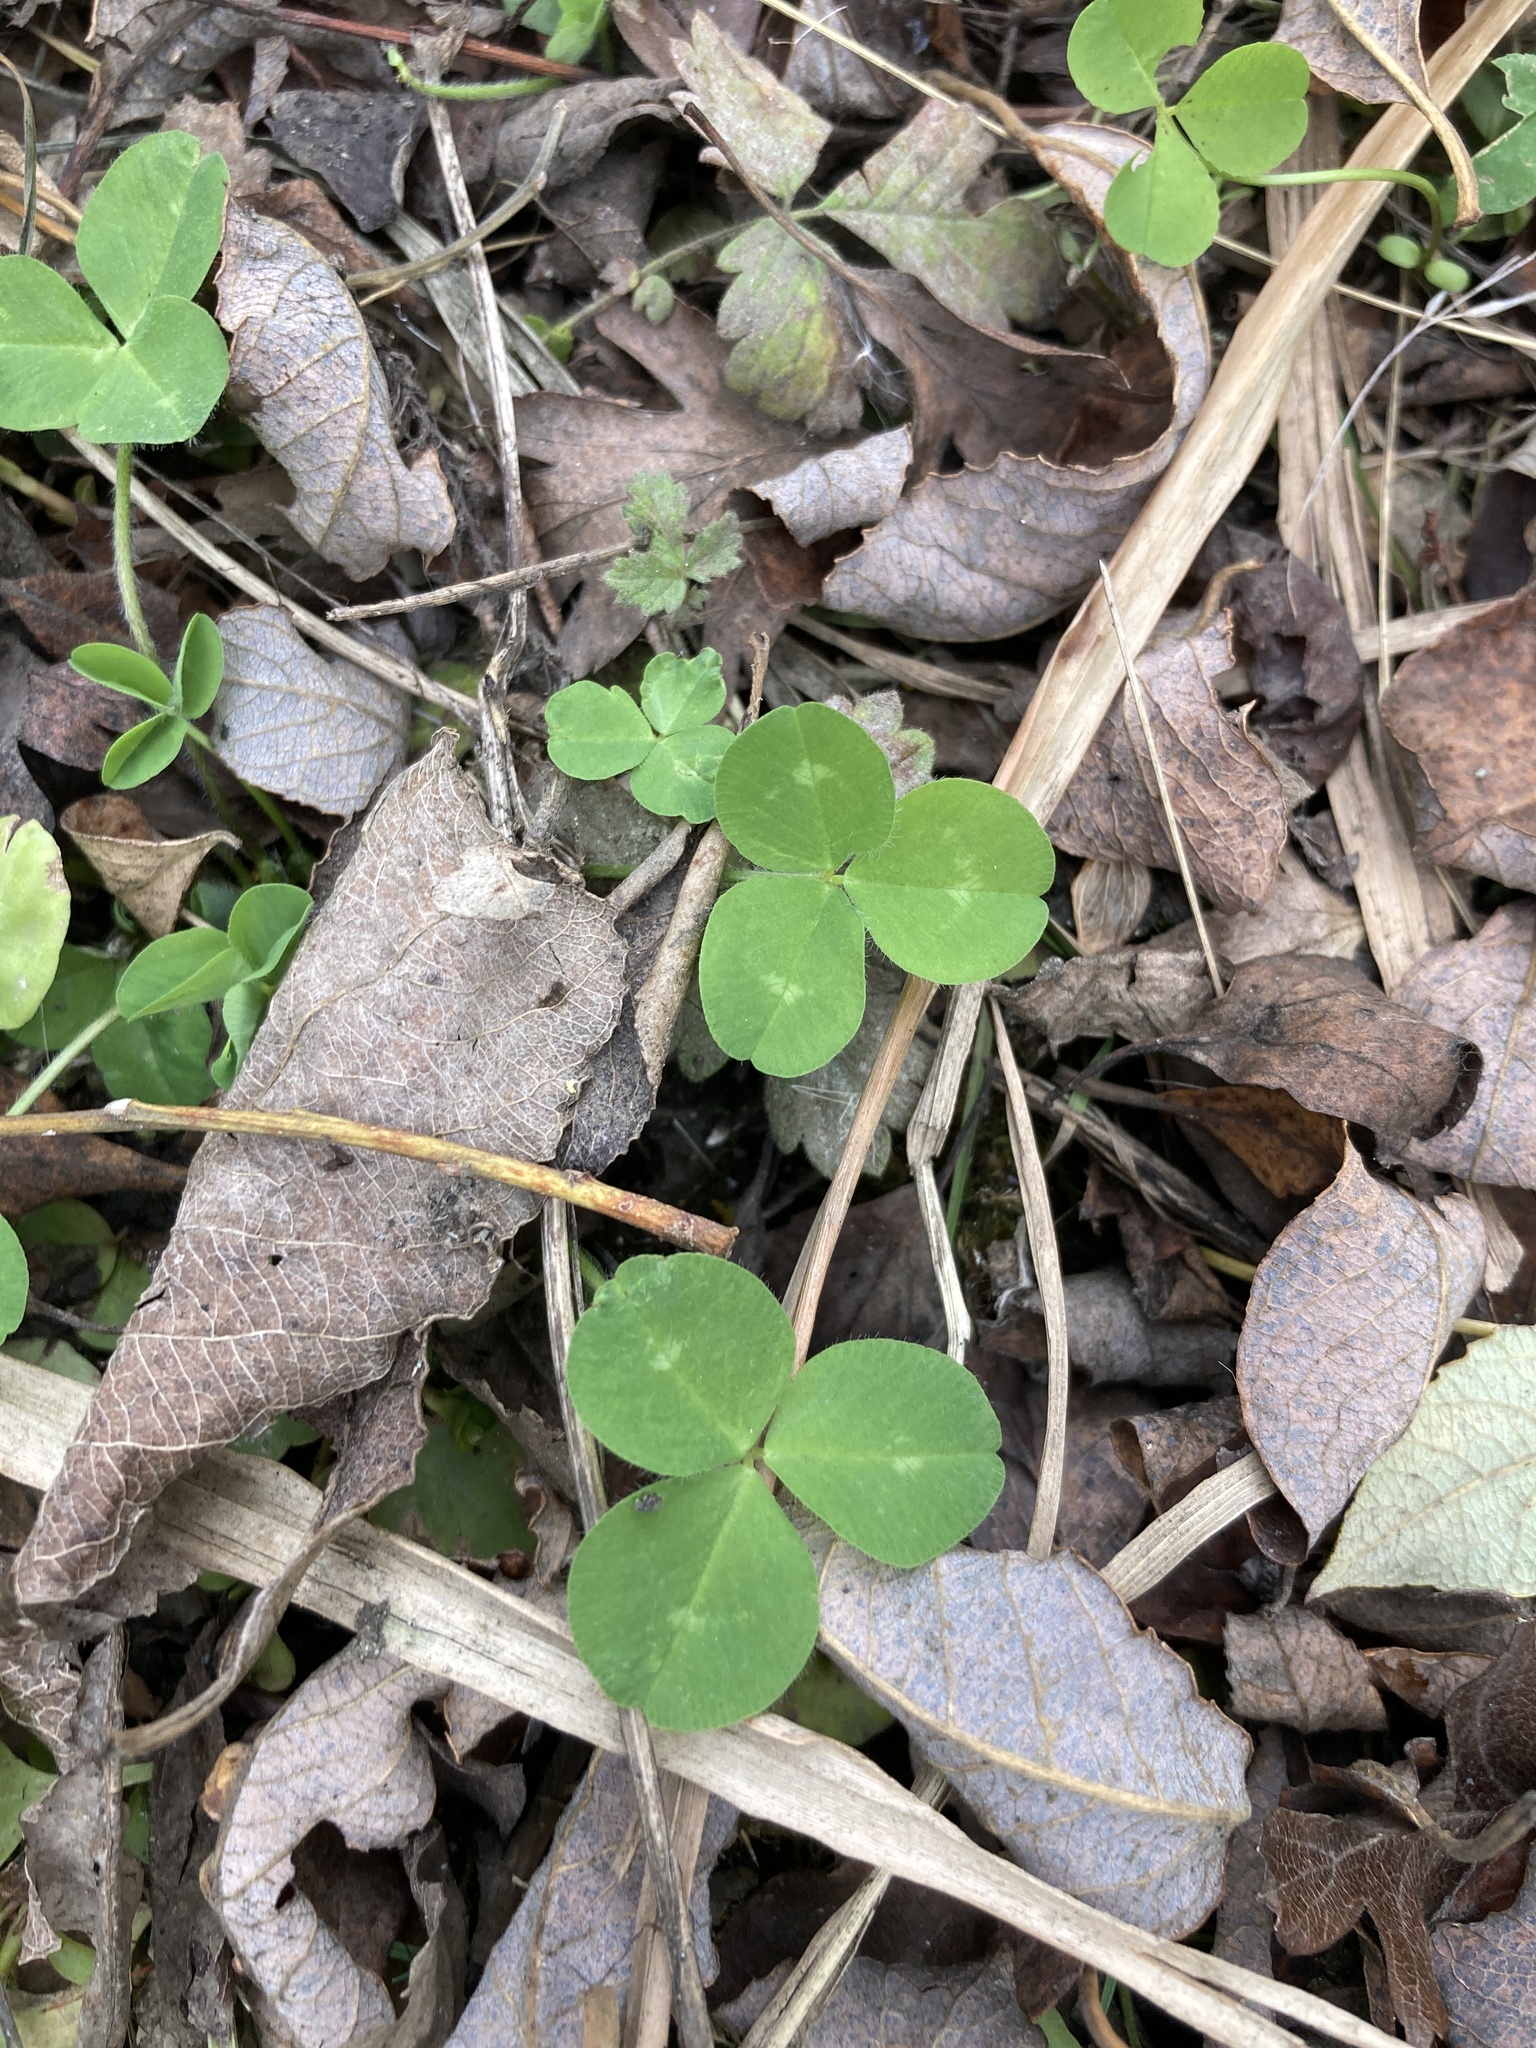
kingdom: Plantae
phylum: Tracheophyta
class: Magnoliopsida
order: Fabales
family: Fabaceae
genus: Trifolium
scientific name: Trifolium repens
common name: White clover
